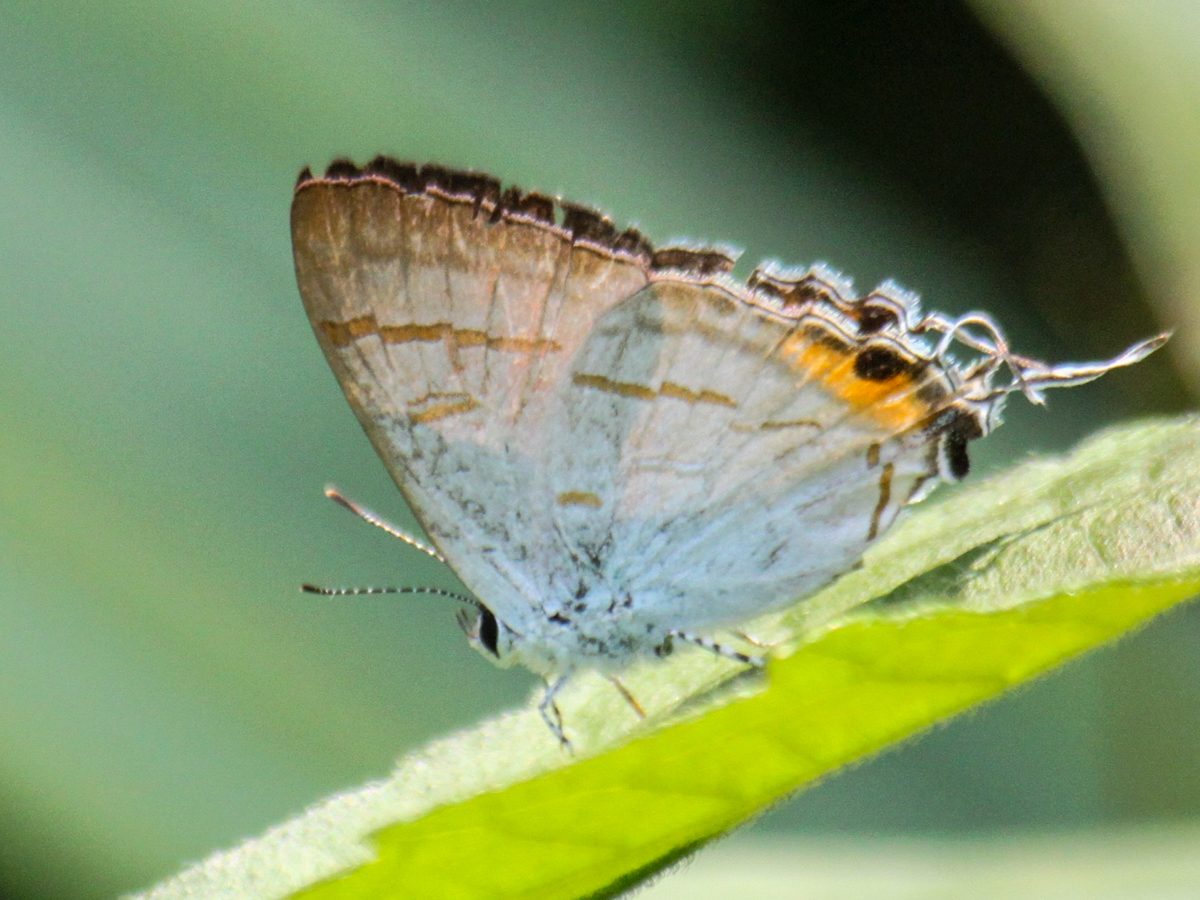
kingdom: Animalia
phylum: Arthropoda
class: Insecta
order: Lepidoptera
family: Lycaenidae
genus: Hypolycaena
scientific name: Hypolycaena thecloides
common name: Dark tit
